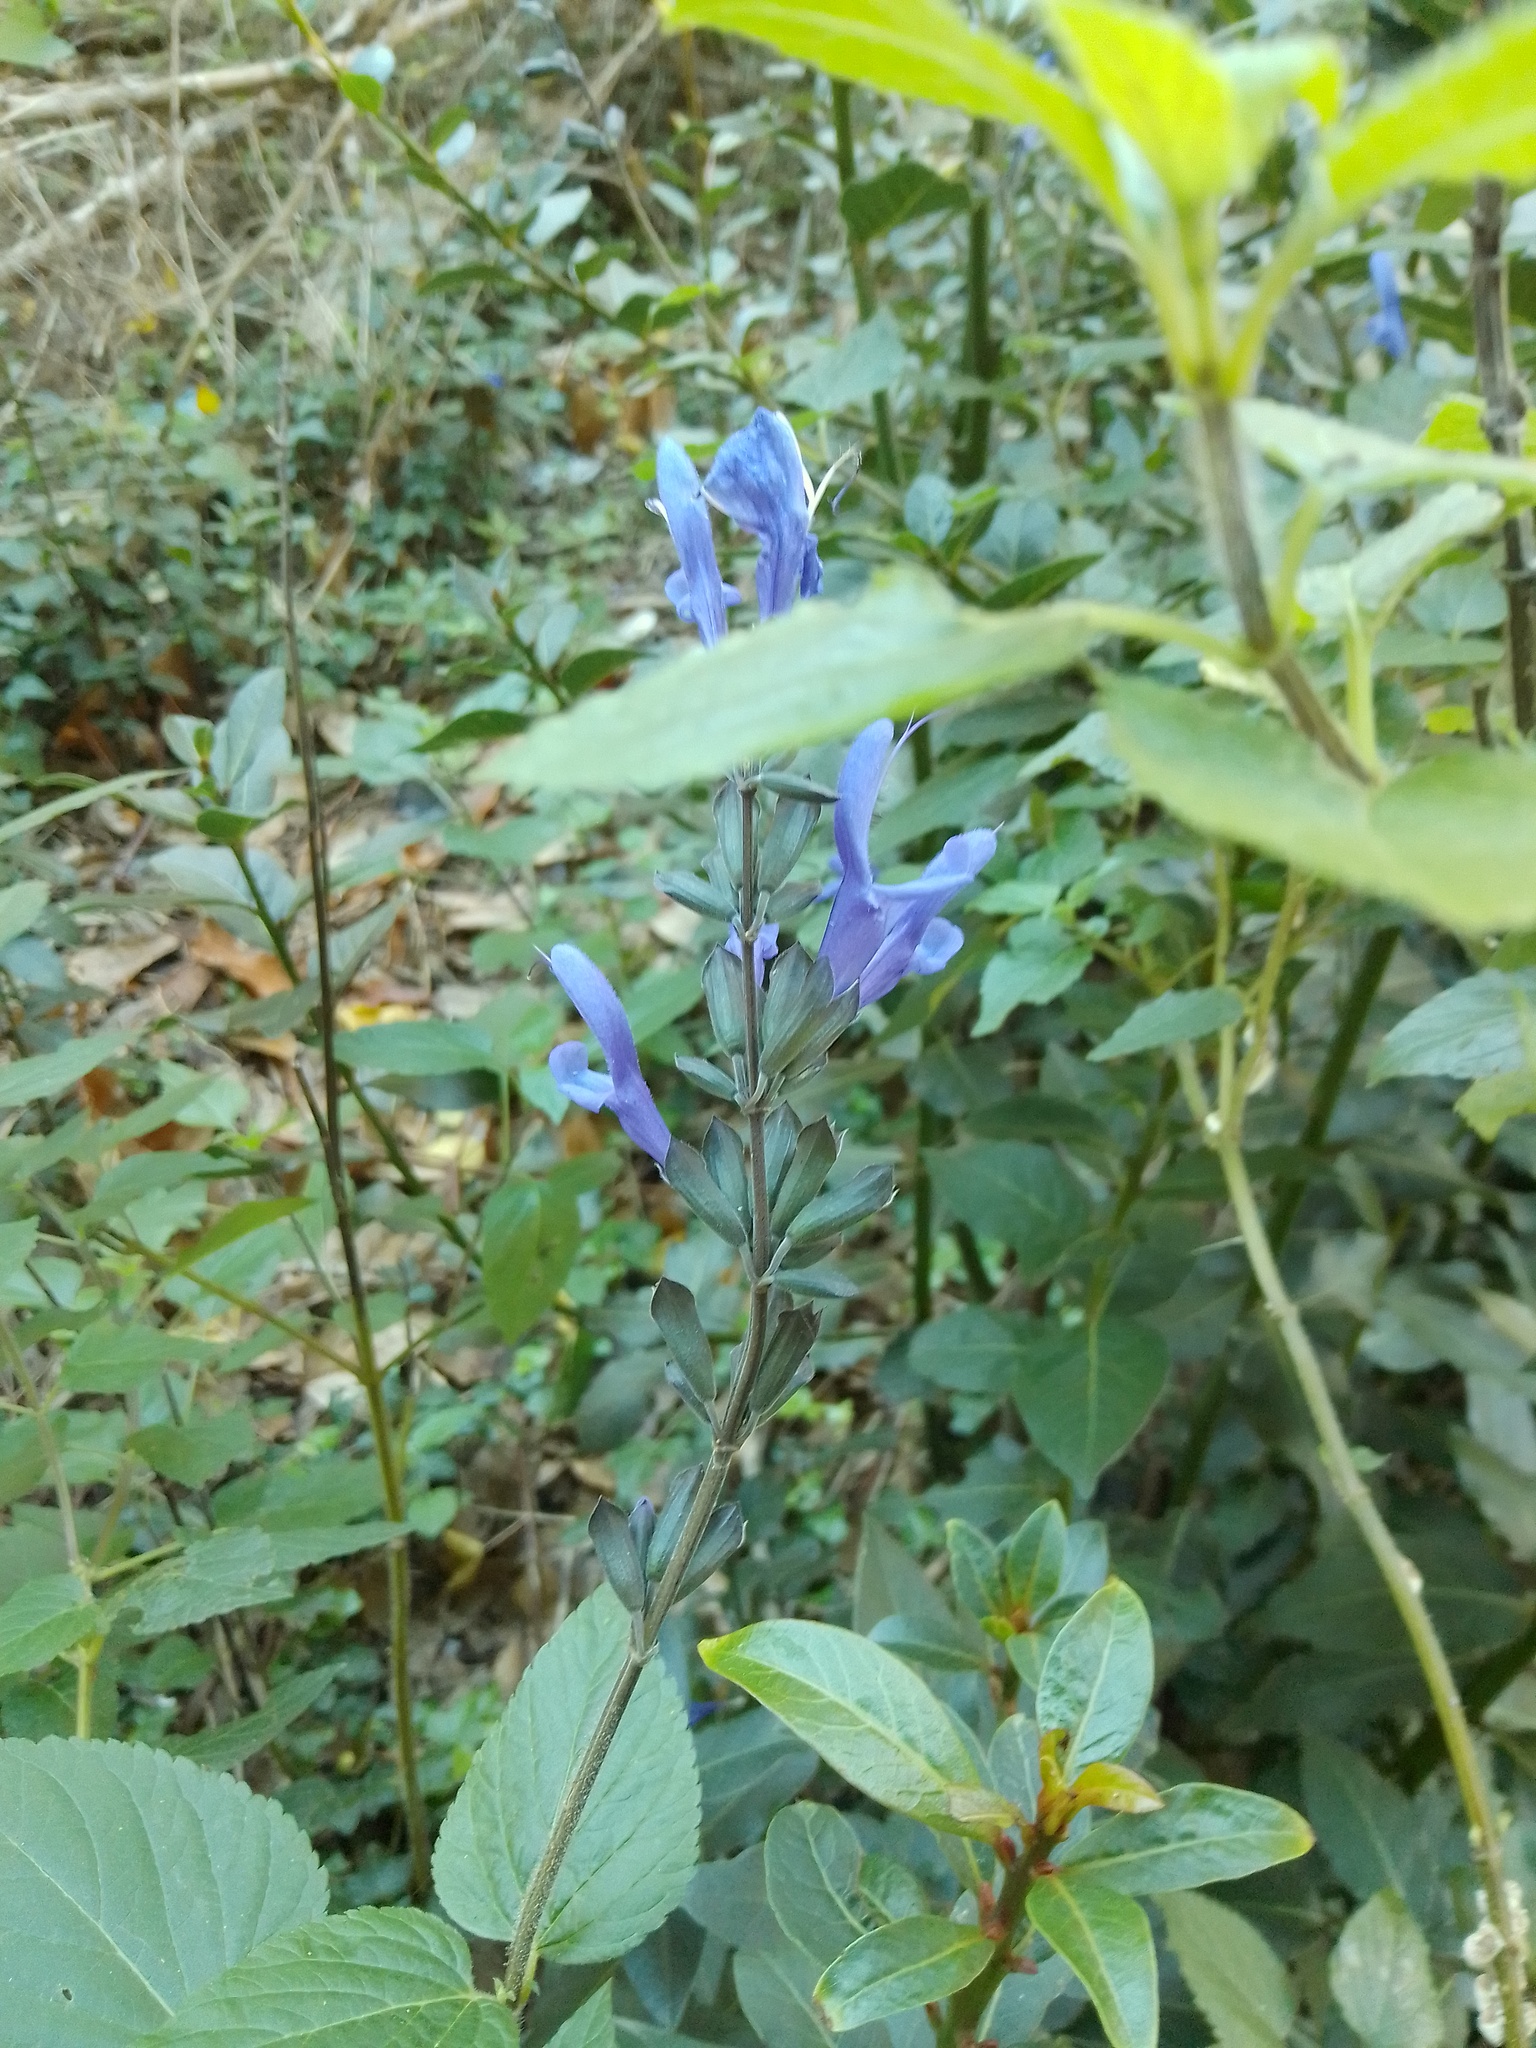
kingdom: Plantae
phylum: Tracheophyta
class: Magnoliopsida
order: Lamiales
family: Lamiaceae
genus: Salvia
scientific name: Salvia guaranitica
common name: Anise-scented sage
